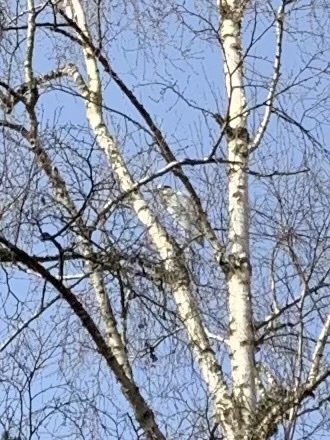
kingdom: Animalia
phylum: Chordata
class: Aves
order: Pelecaniformes
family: Ardeidae
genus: Ardea
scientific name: Ardea cinerea
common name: Grey heron
